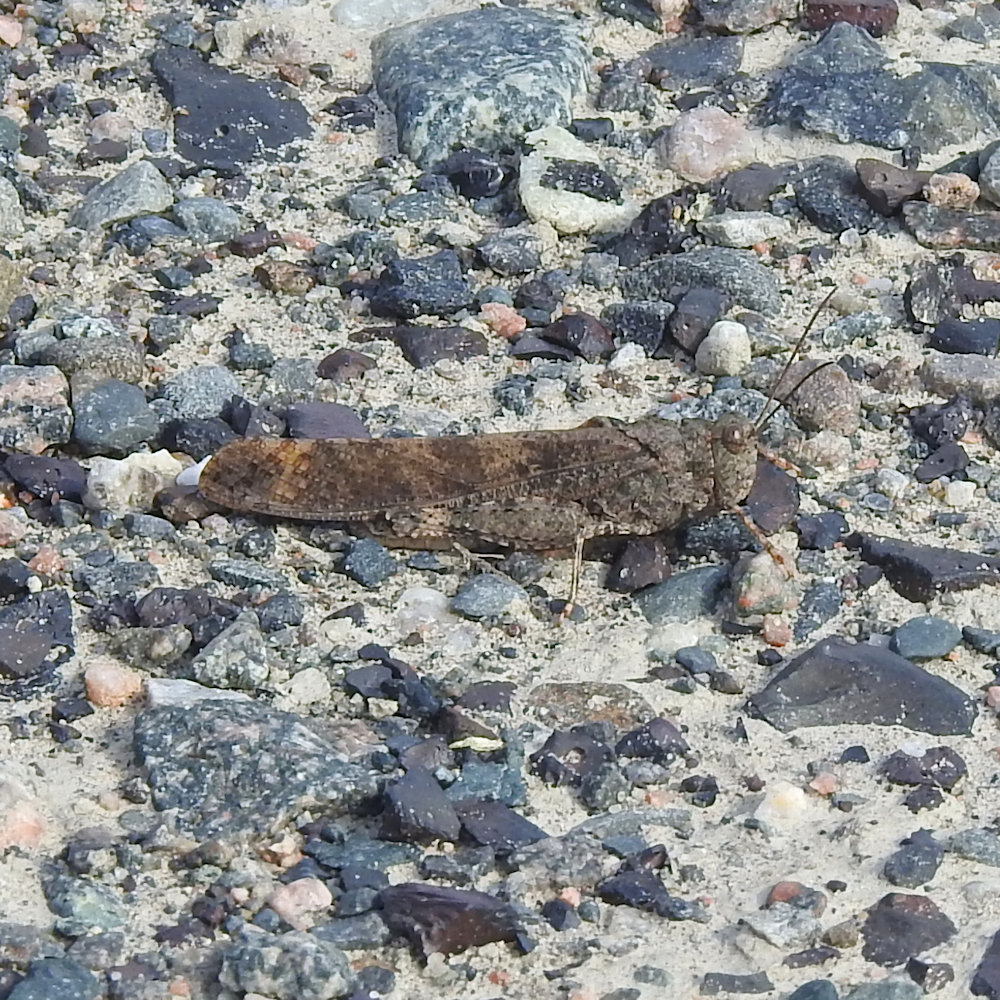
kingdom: Animalia
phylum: Arthropoda
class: Insecta
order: Orthoptera
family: Acrididae
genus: Dissosteira
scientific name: Dissosteira carolina
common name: Carolina grasshopper
